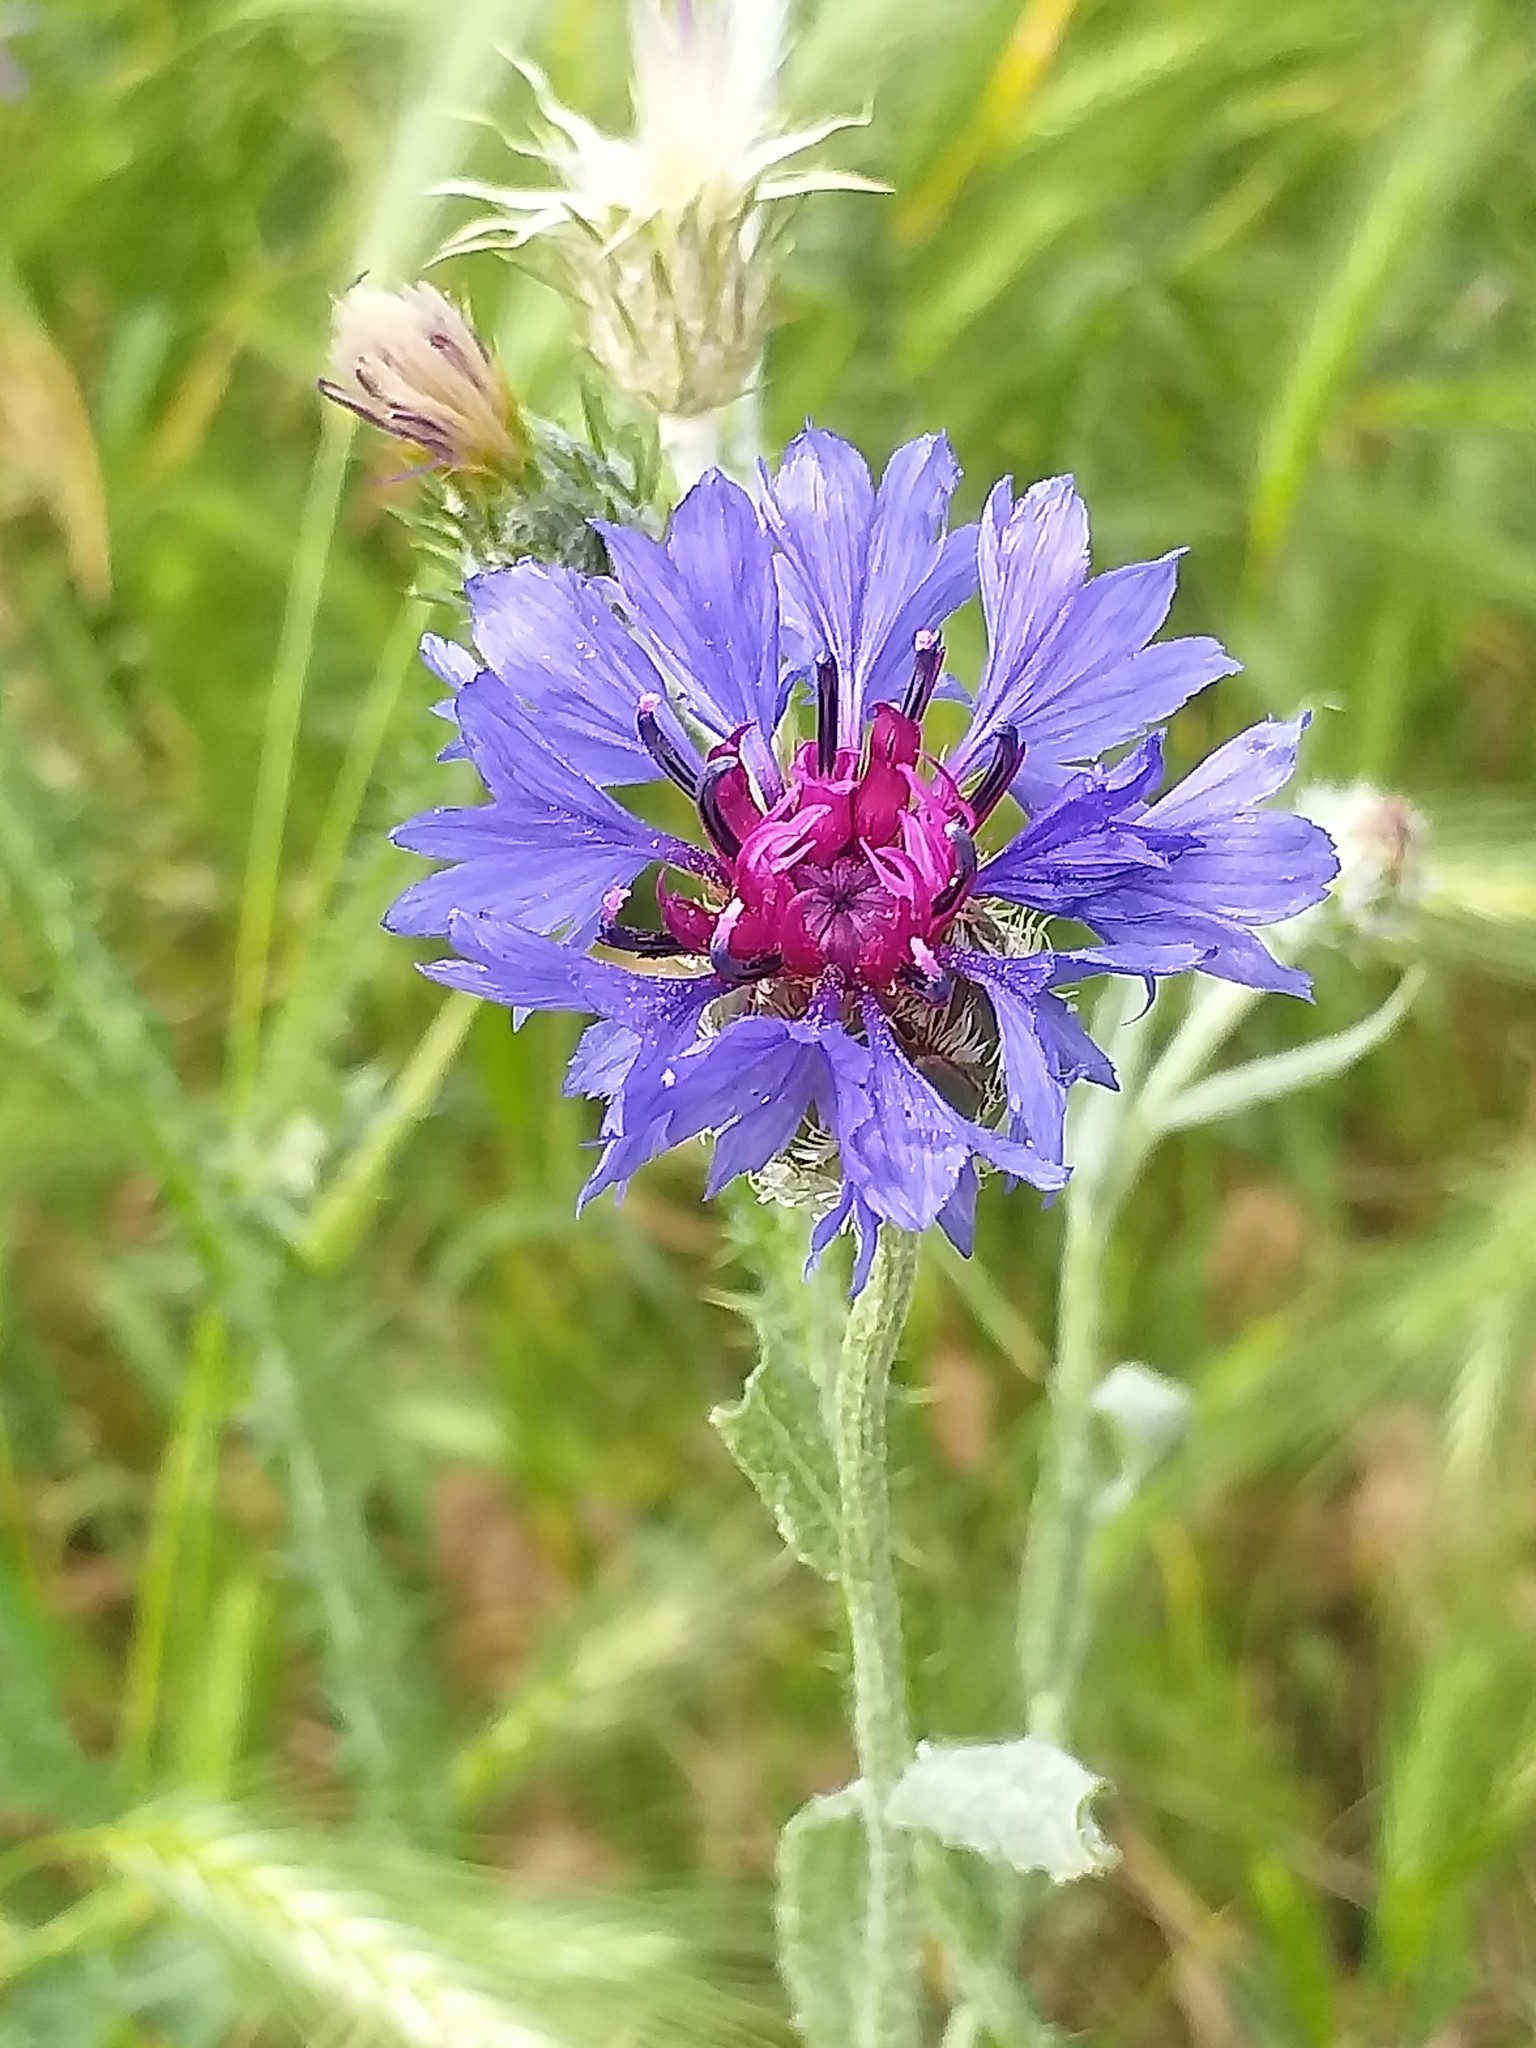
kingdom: Plantae
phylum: Tracheophyta
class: Magnoliopsida
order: Asterales
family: Asteraceae
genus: Centaurea
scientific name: Centaurea cyanus
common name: Cornflower
